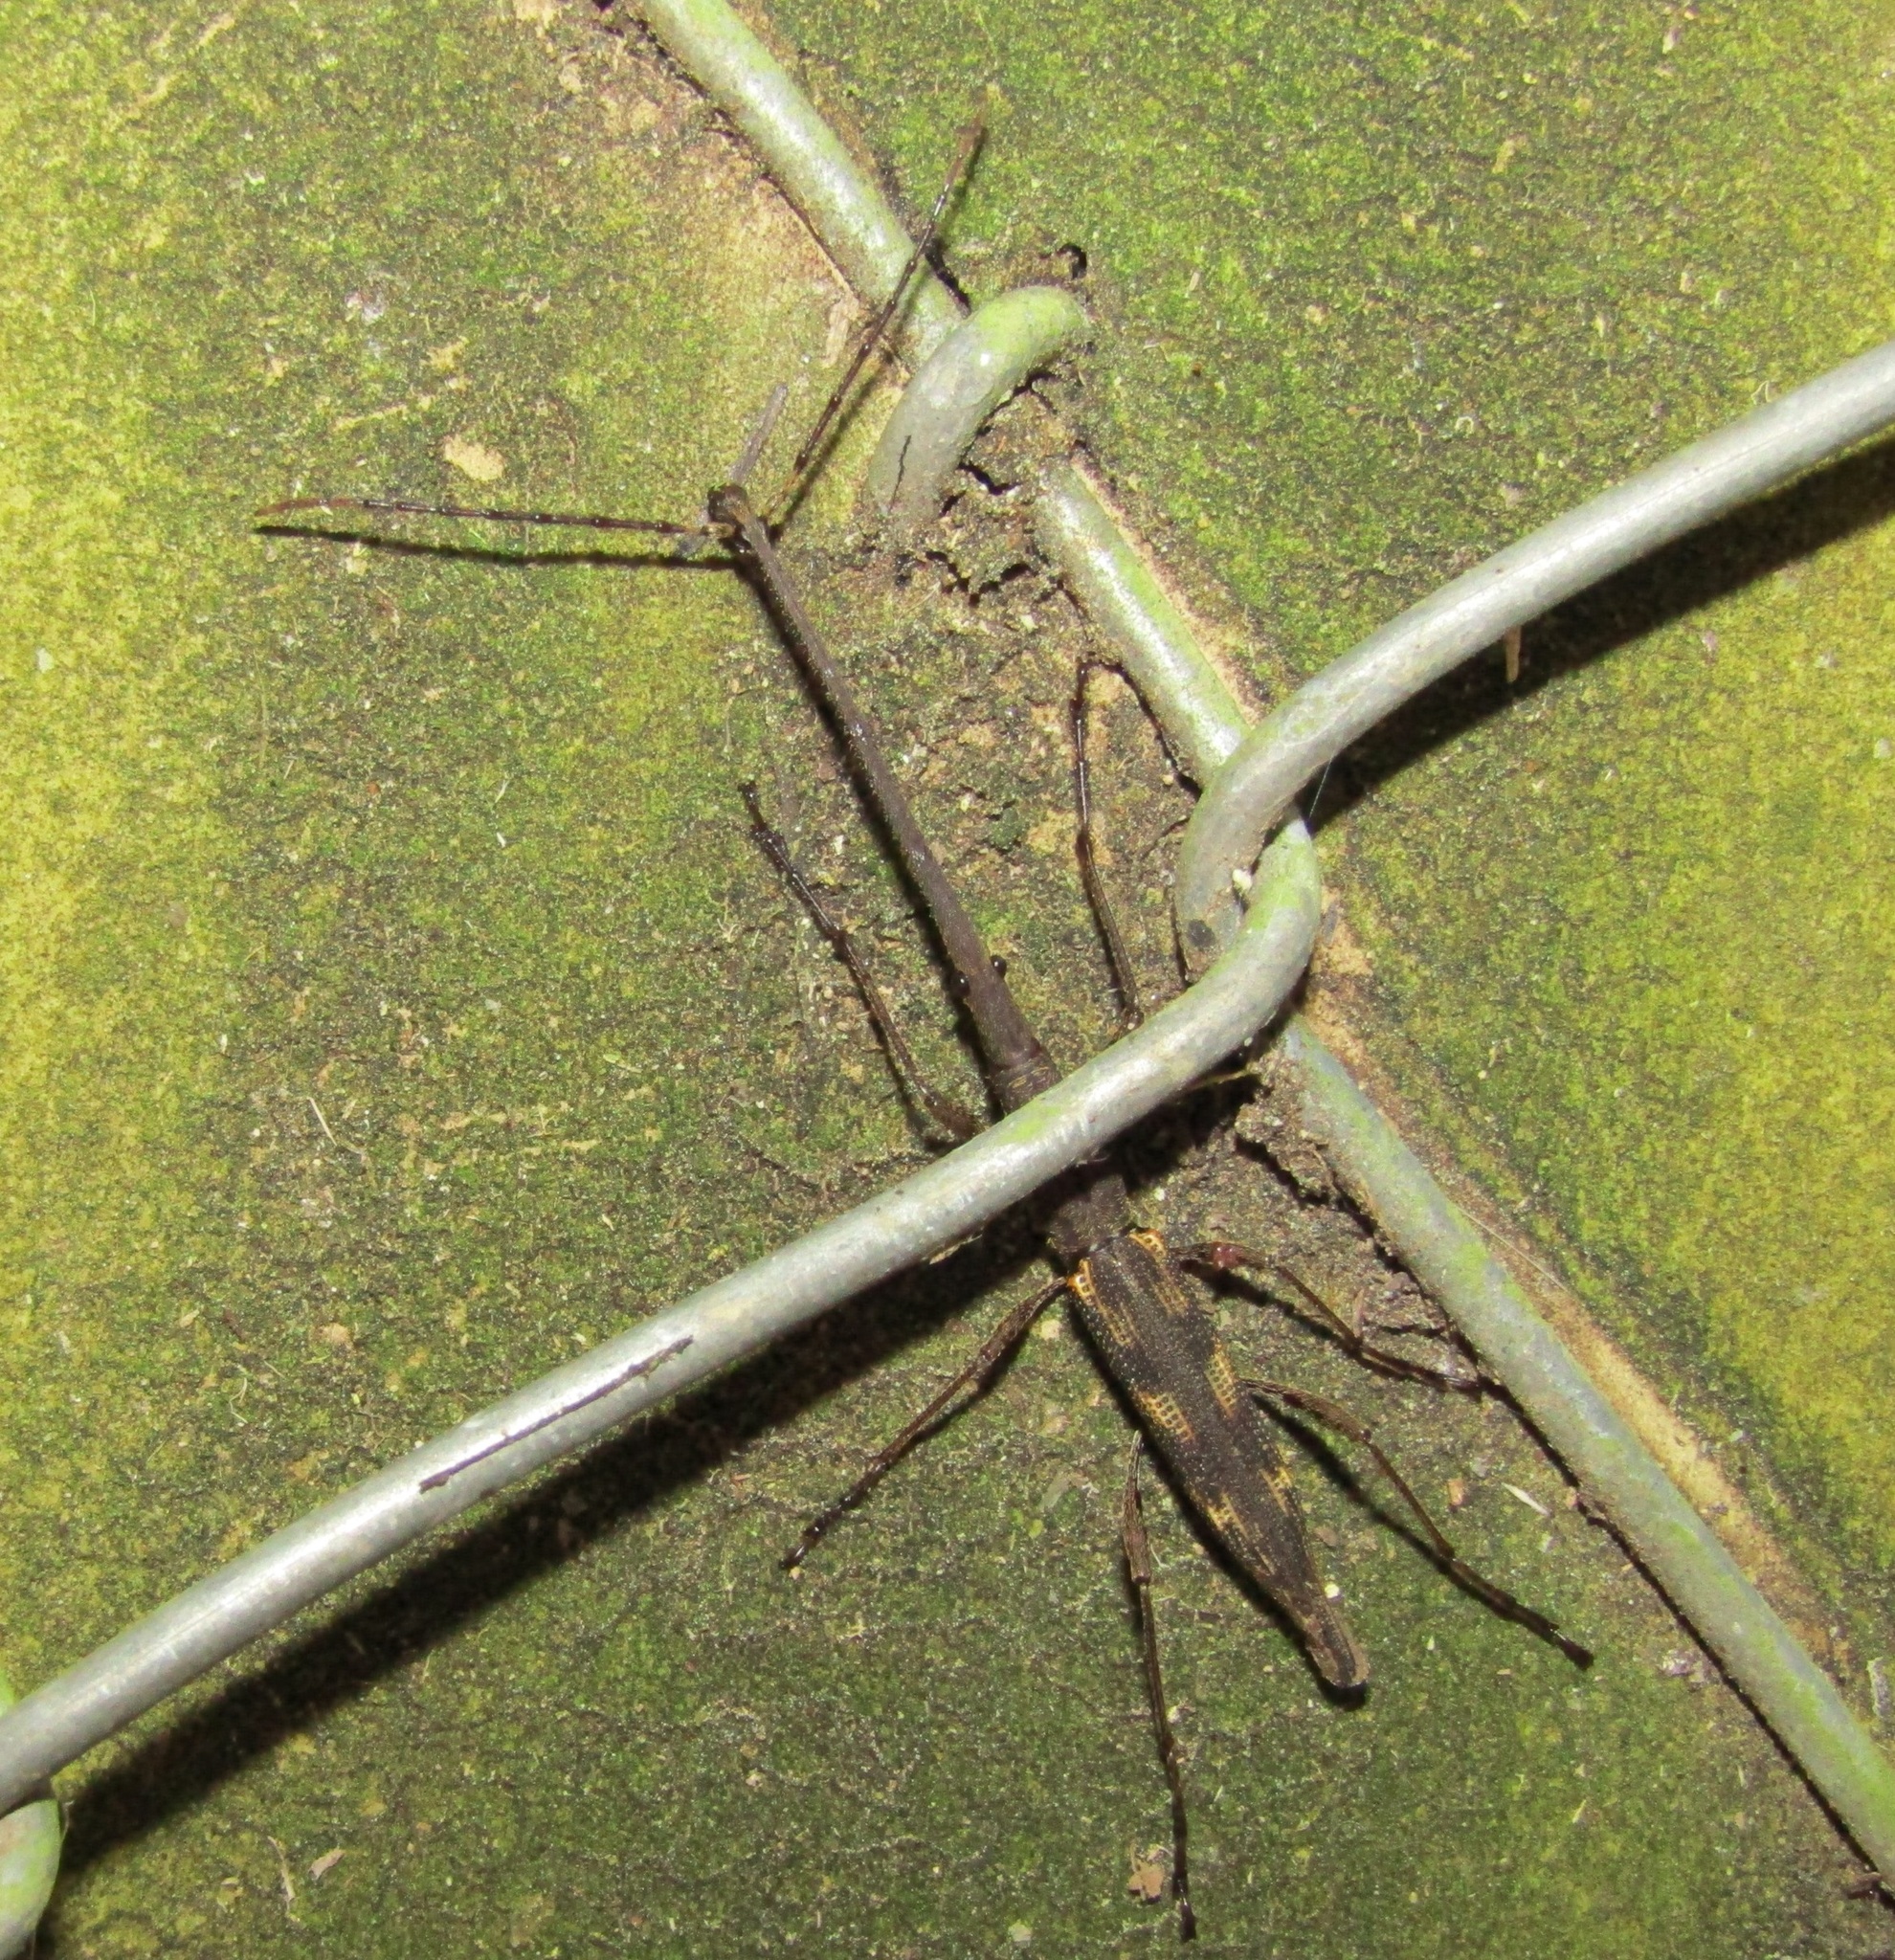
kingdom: Animalia
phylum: Arthropoda
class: Insecta
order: Coleoptera
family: Brentidae
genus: Lasiorhynchus
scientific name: Lasiorhynchus barbicornis
